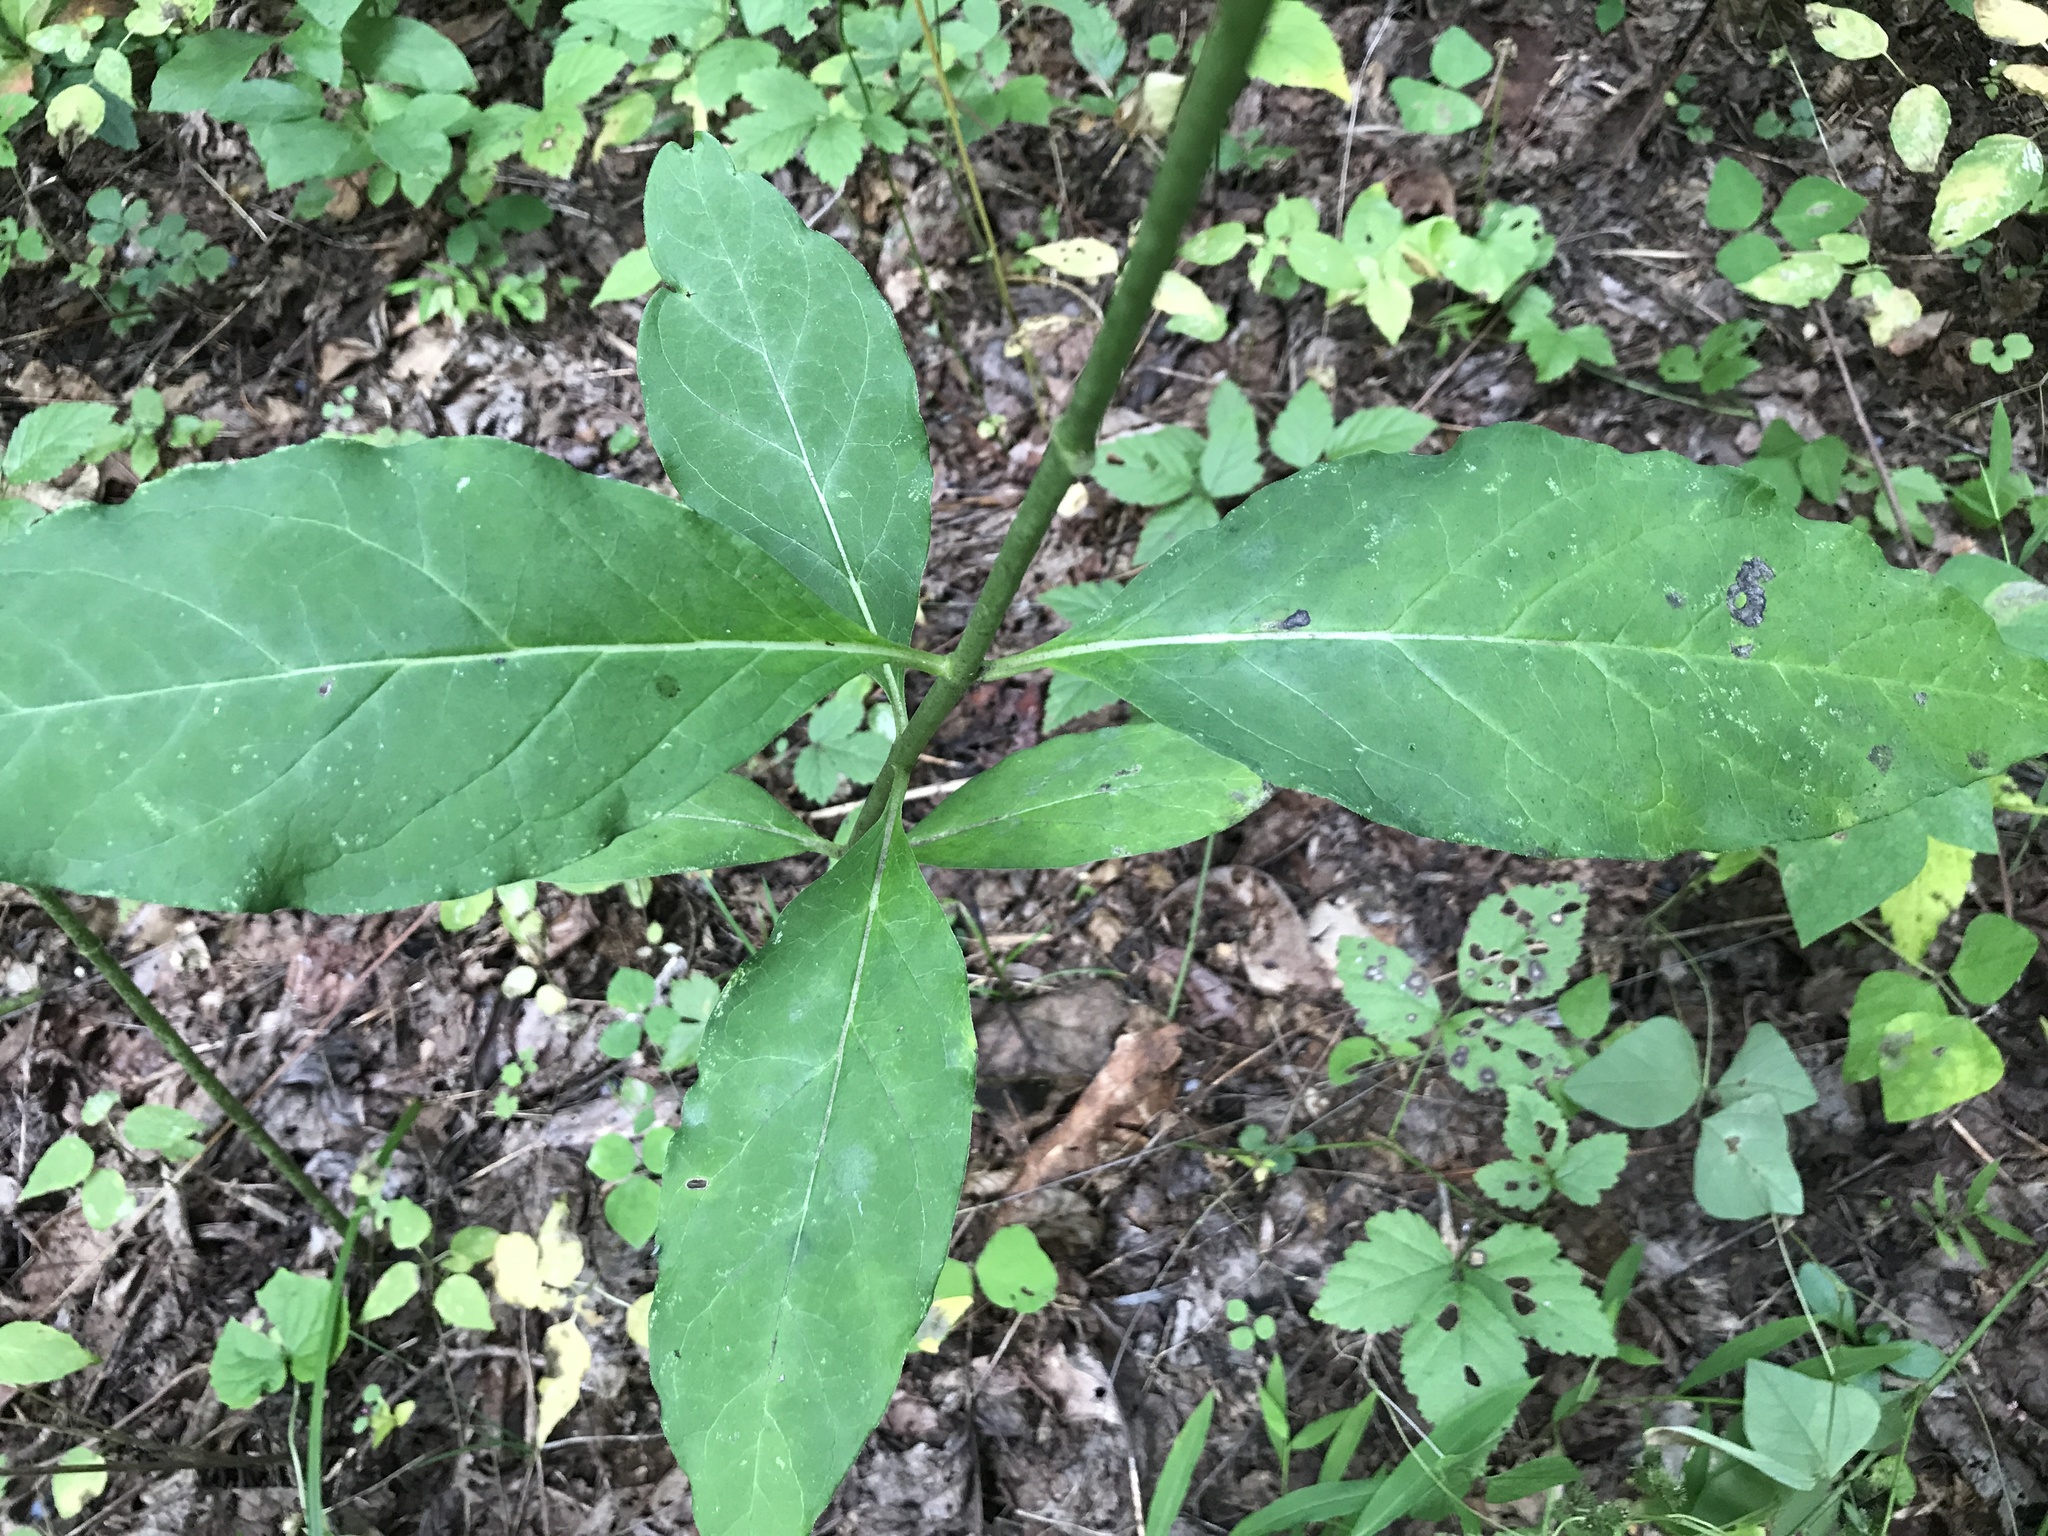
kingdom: Plantae
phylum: Tracheophyta
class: Magnoliopsida
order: Gentianales
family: Apocynaceae
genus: Asclepias
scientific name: Asclepias exaltata
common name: Poke milkweed
